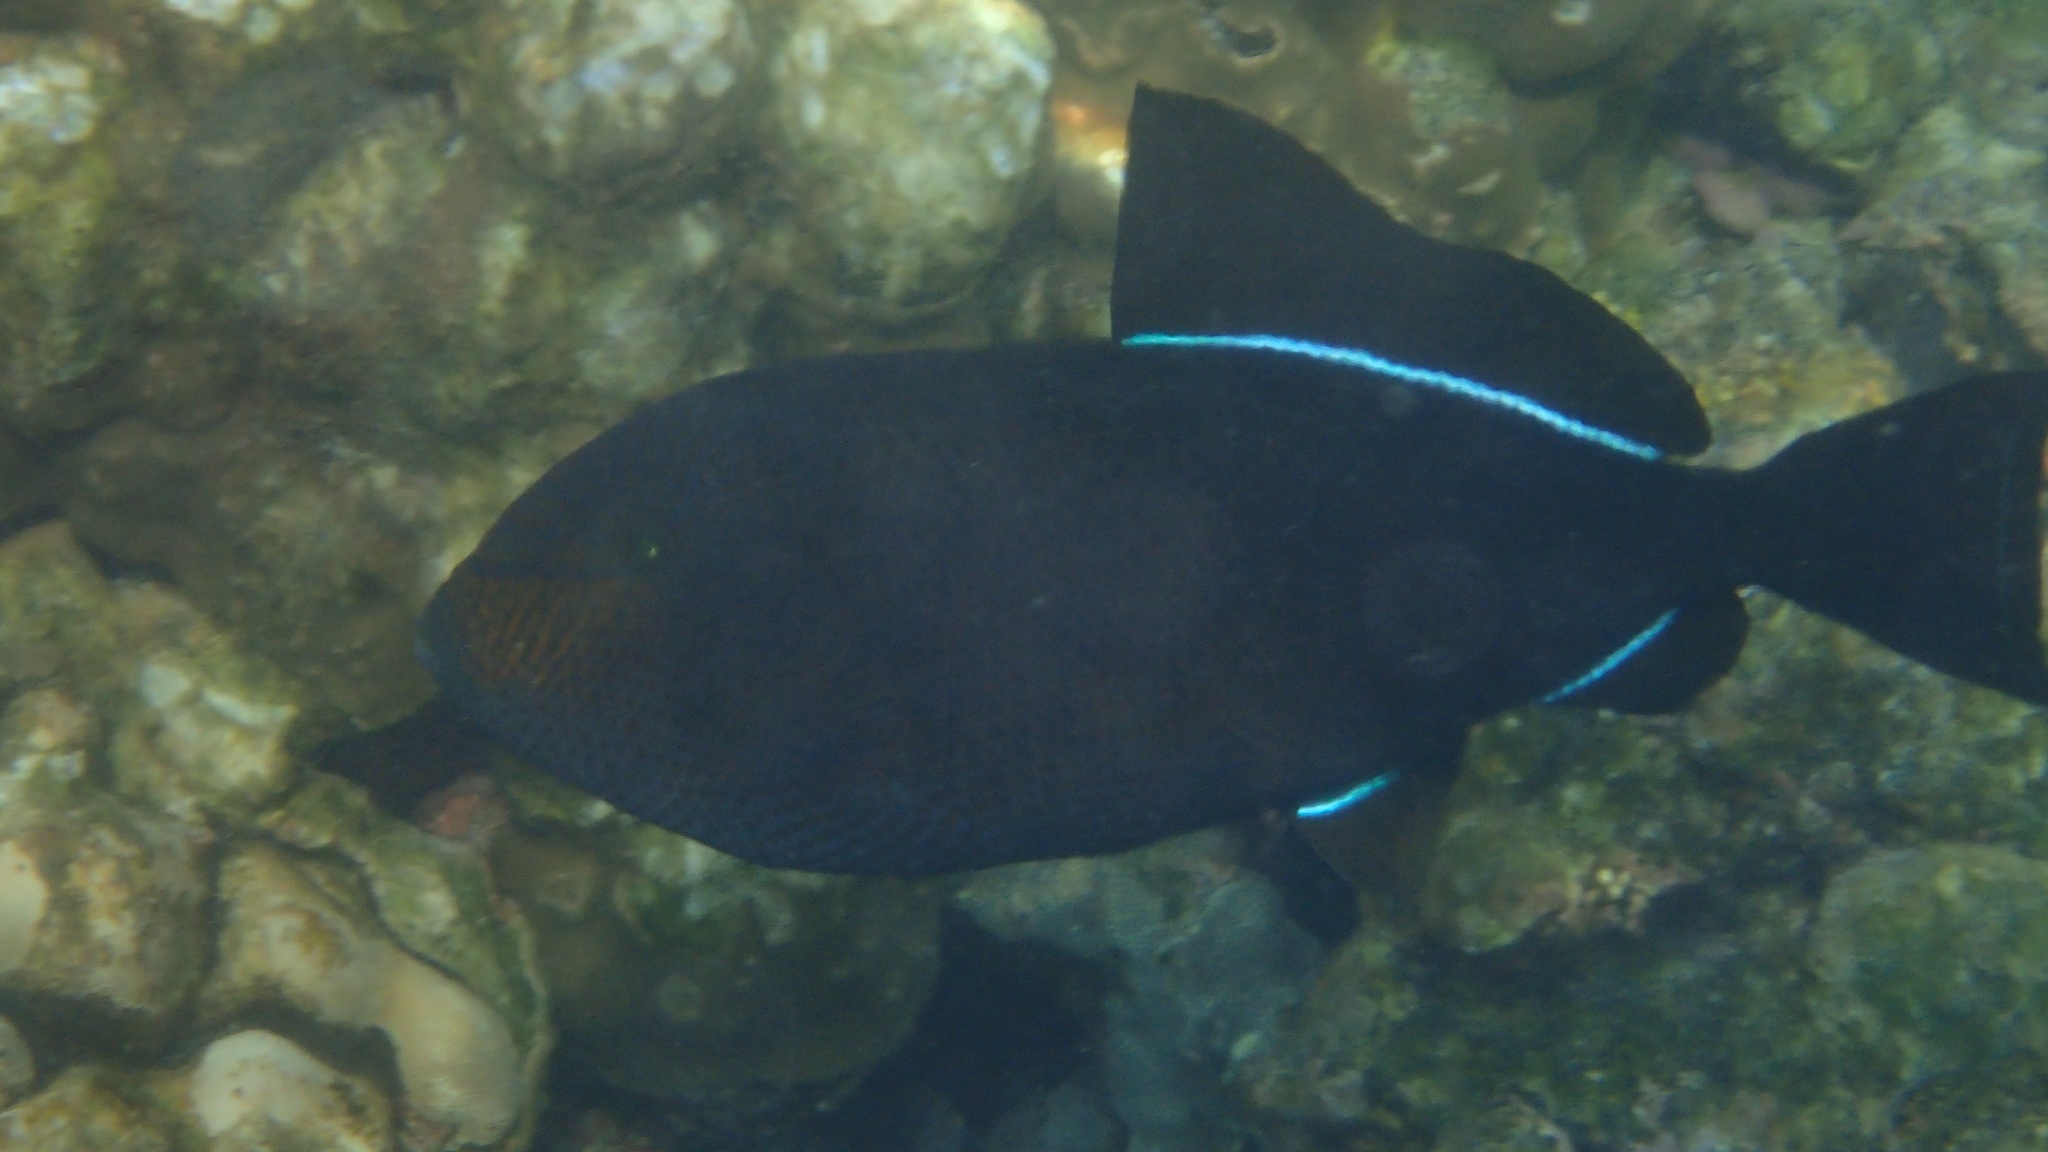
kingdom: Animalia
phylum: Chordata
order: Tetraodontiformes
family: Balistidae
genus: Melichthys
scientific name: Melichthys niger
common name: Black durgon
